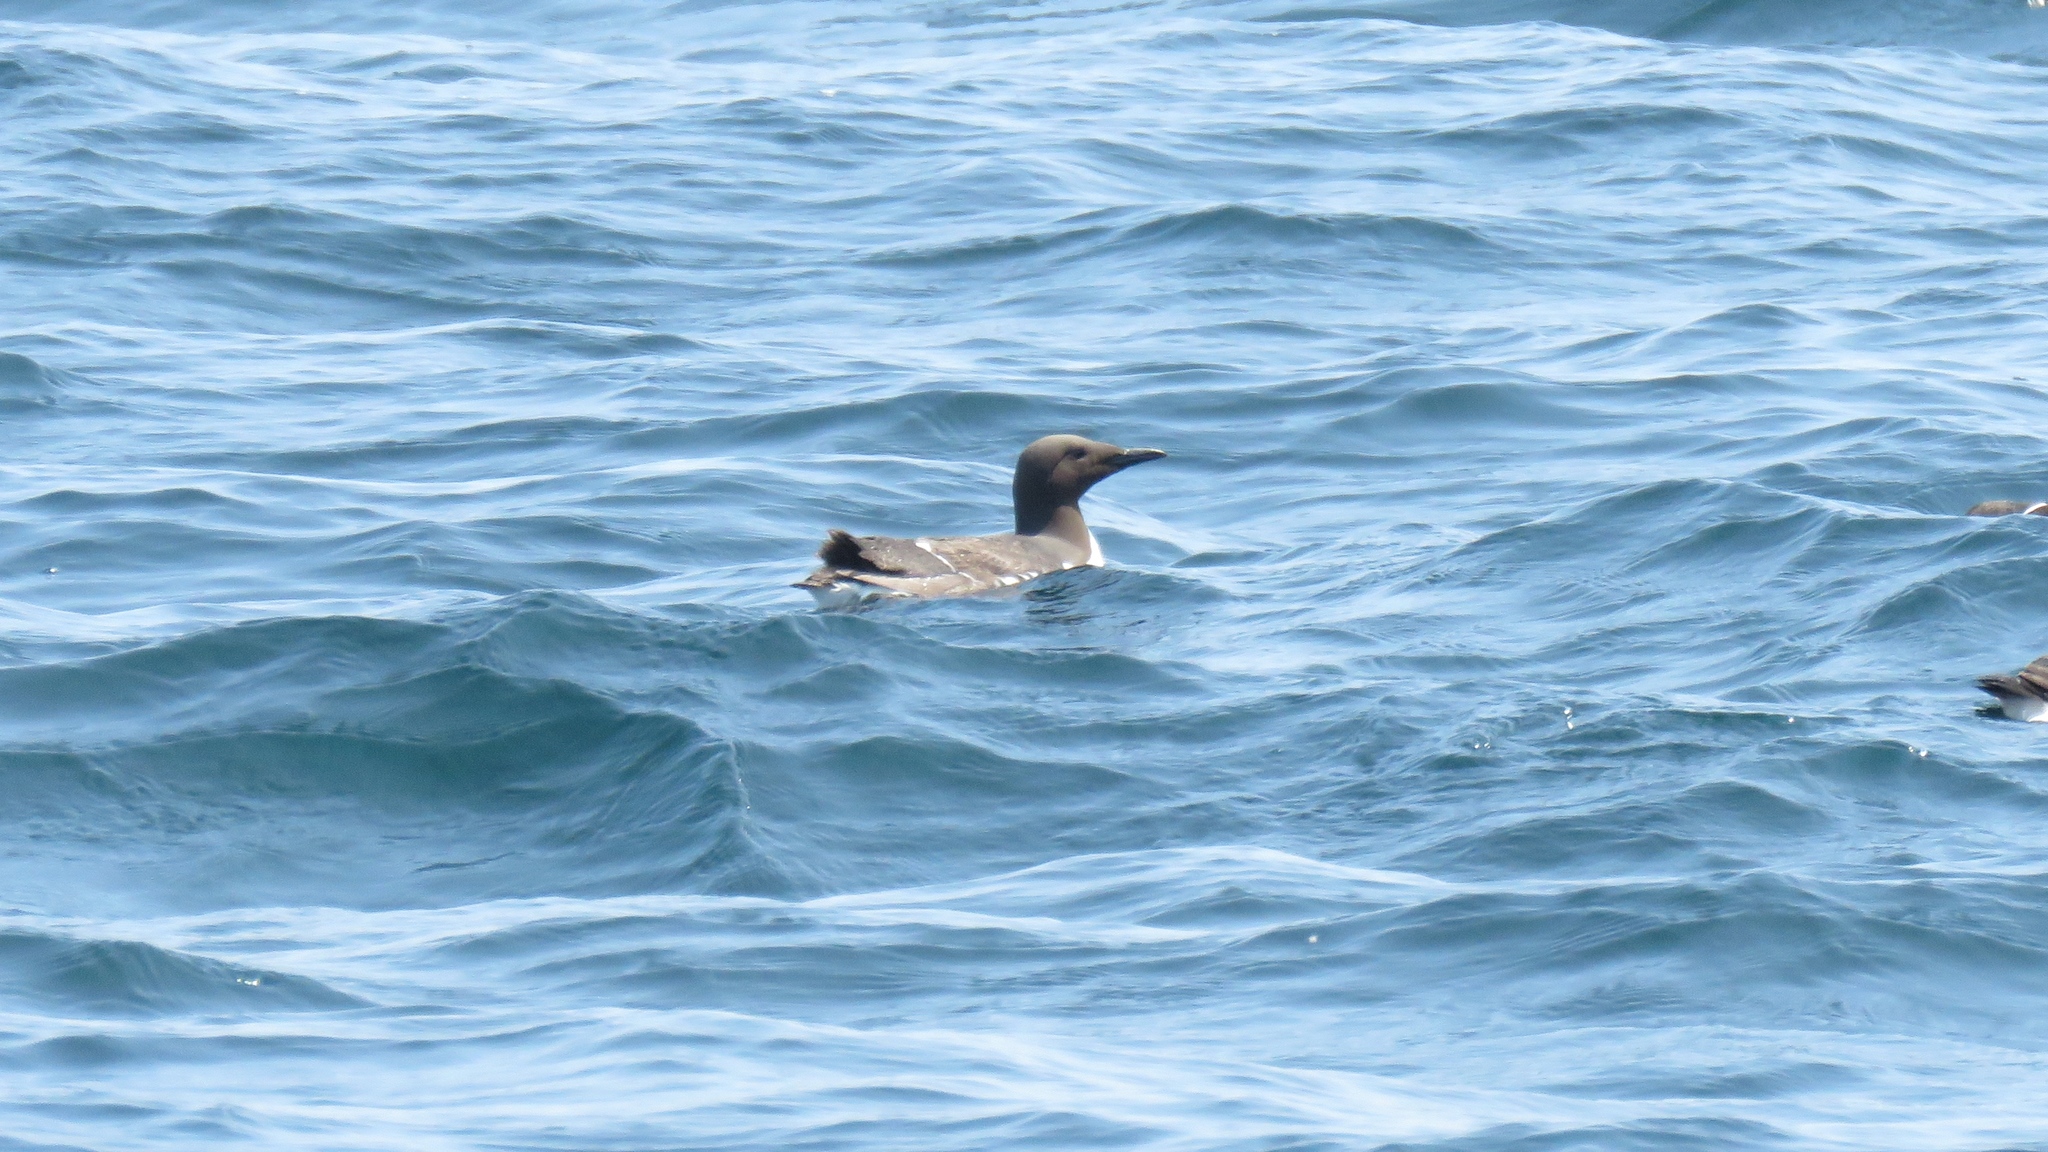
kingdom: Animalia
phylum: Chordata
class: Aves
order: Charadriiformes
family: Alcidae
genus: Uria
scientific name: Uria aalge
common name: Common murre
